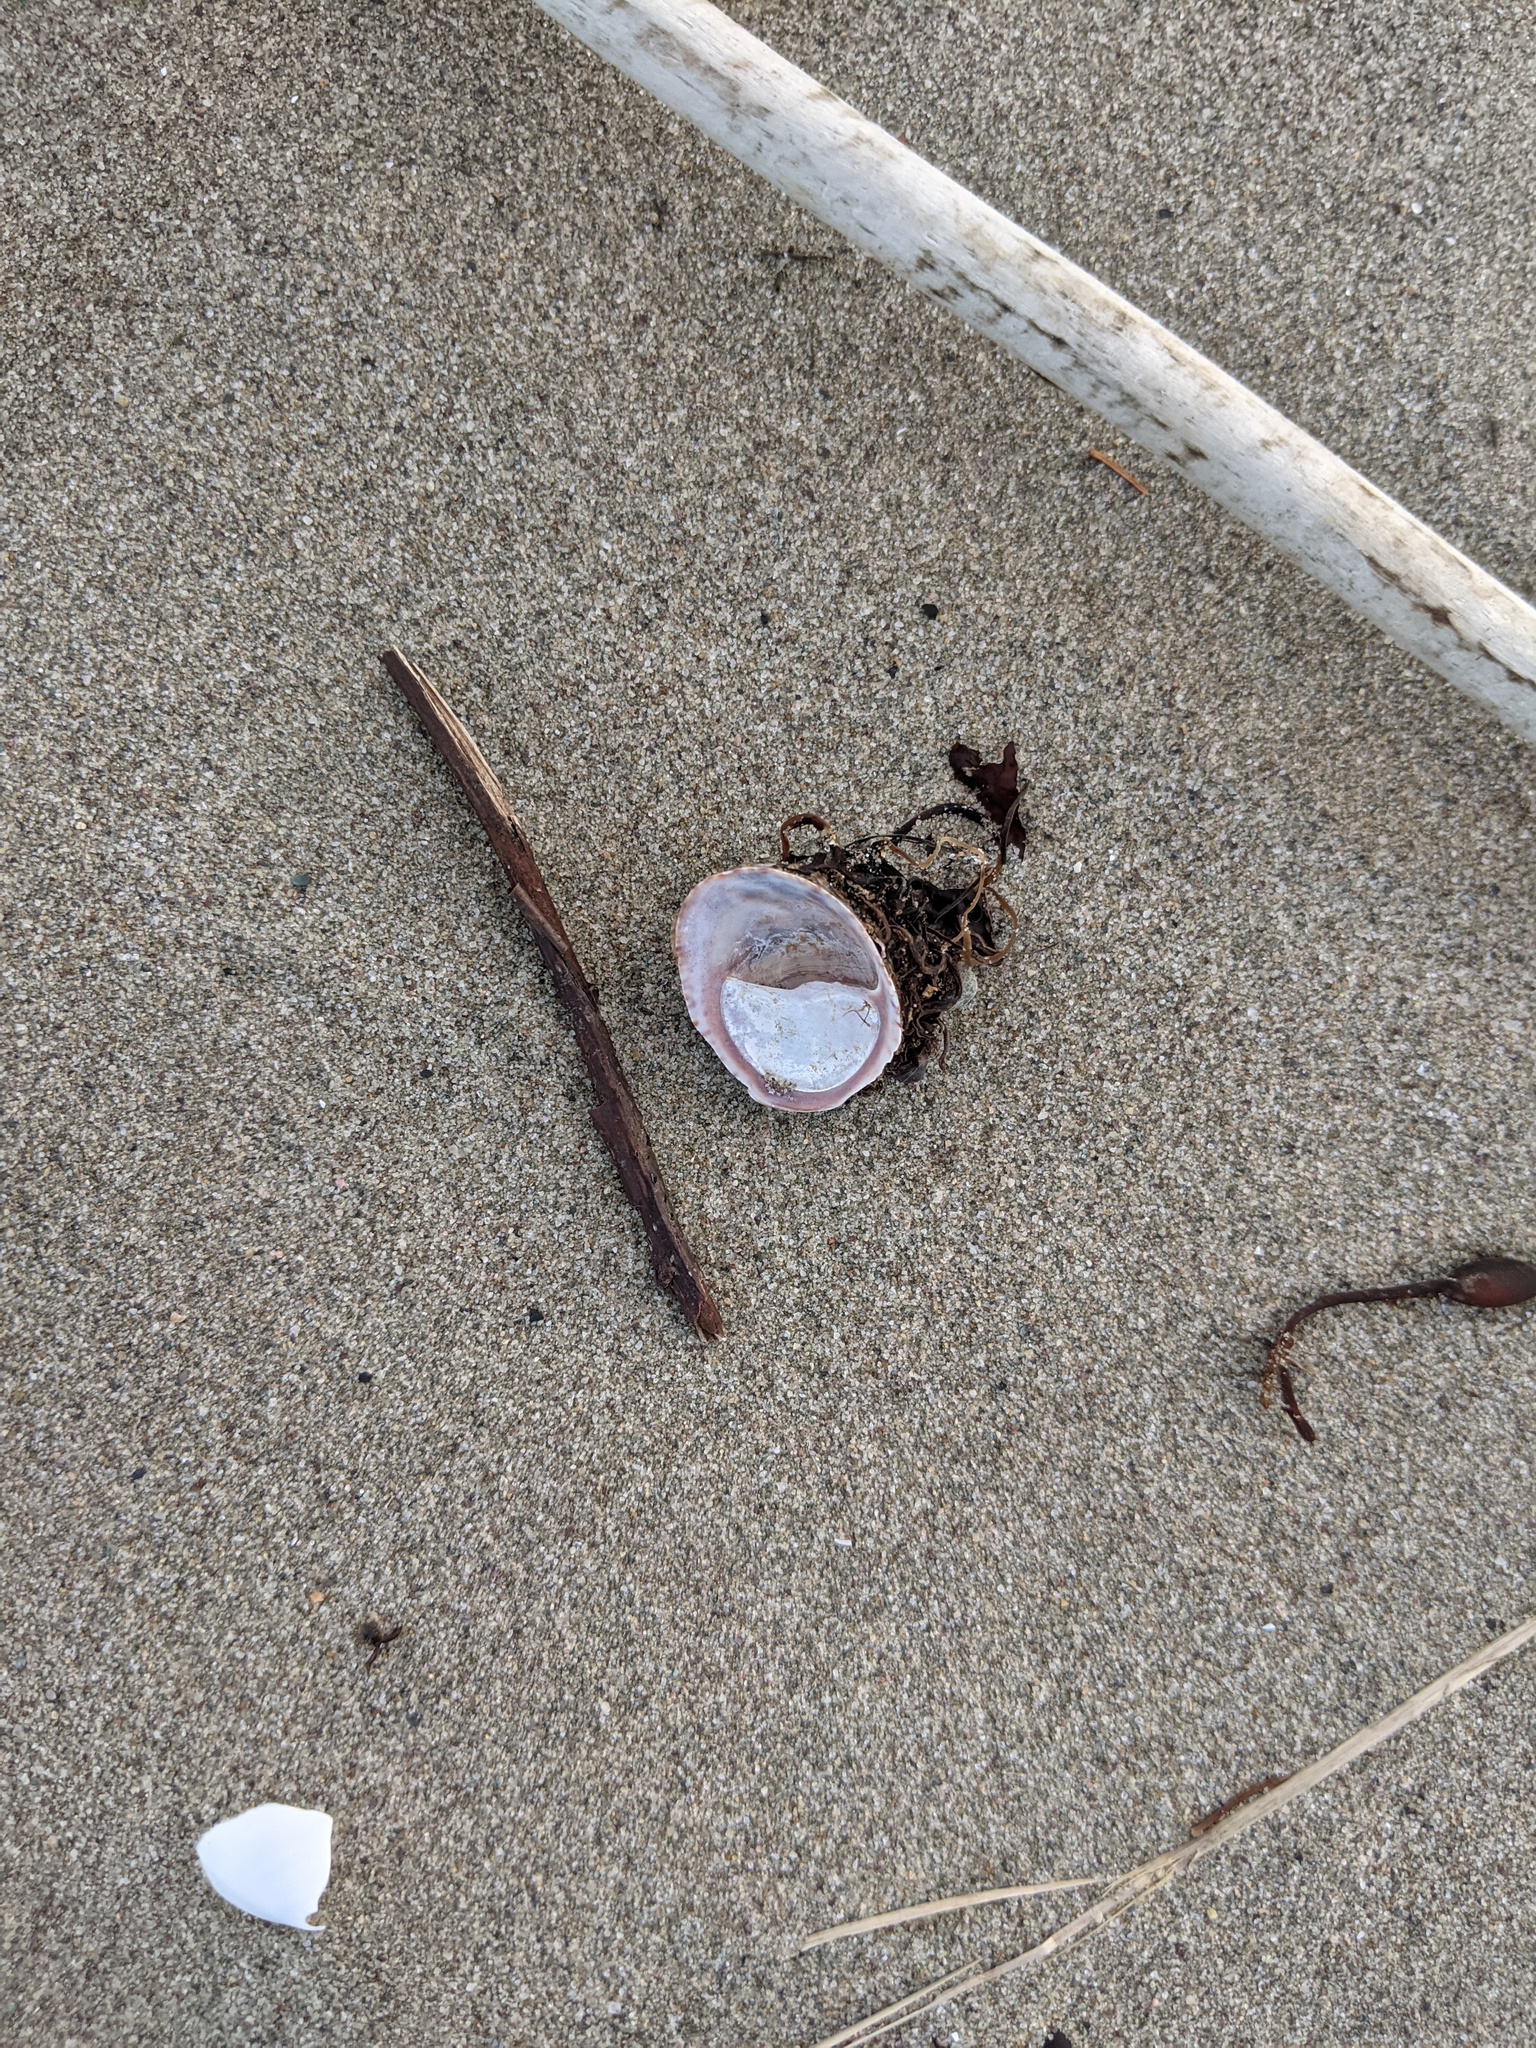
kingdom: Animalia
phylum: Mollusca
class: Gastropoda
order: Littorinimorpha
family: Calyptraeidae
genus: Crepidula
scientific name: Crepidula fornicata
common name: Slipper limpet
